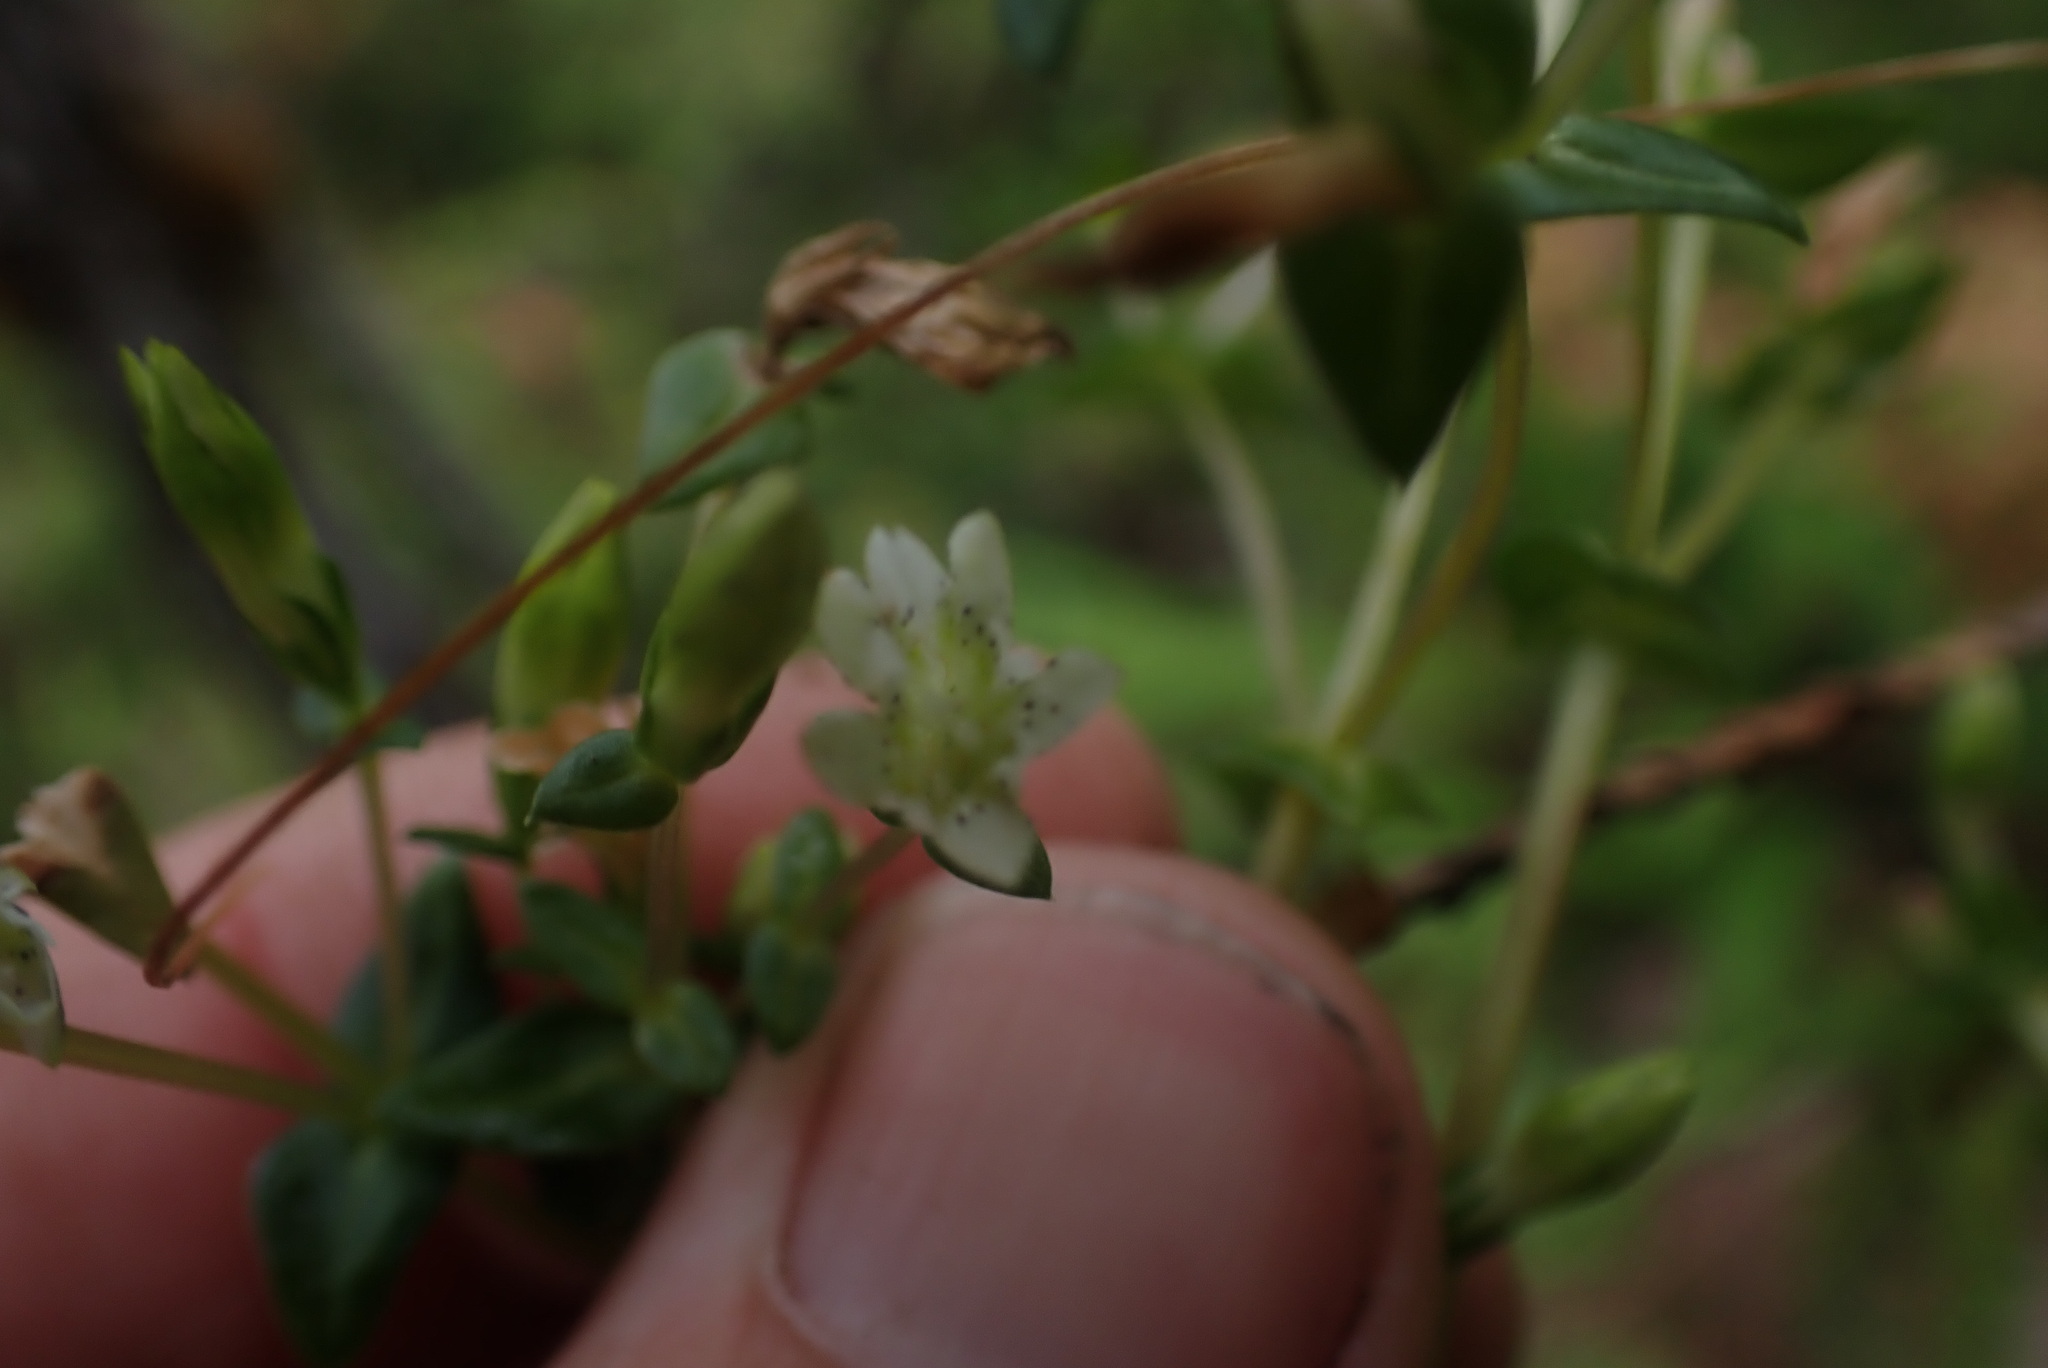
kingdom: Plantae
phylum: Tracheophyta
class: Magnoliopsida
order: Gentianales
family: Gentianaceae
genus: Gentiana
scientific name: Gentiana douglasiana
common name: Swamp gentian
